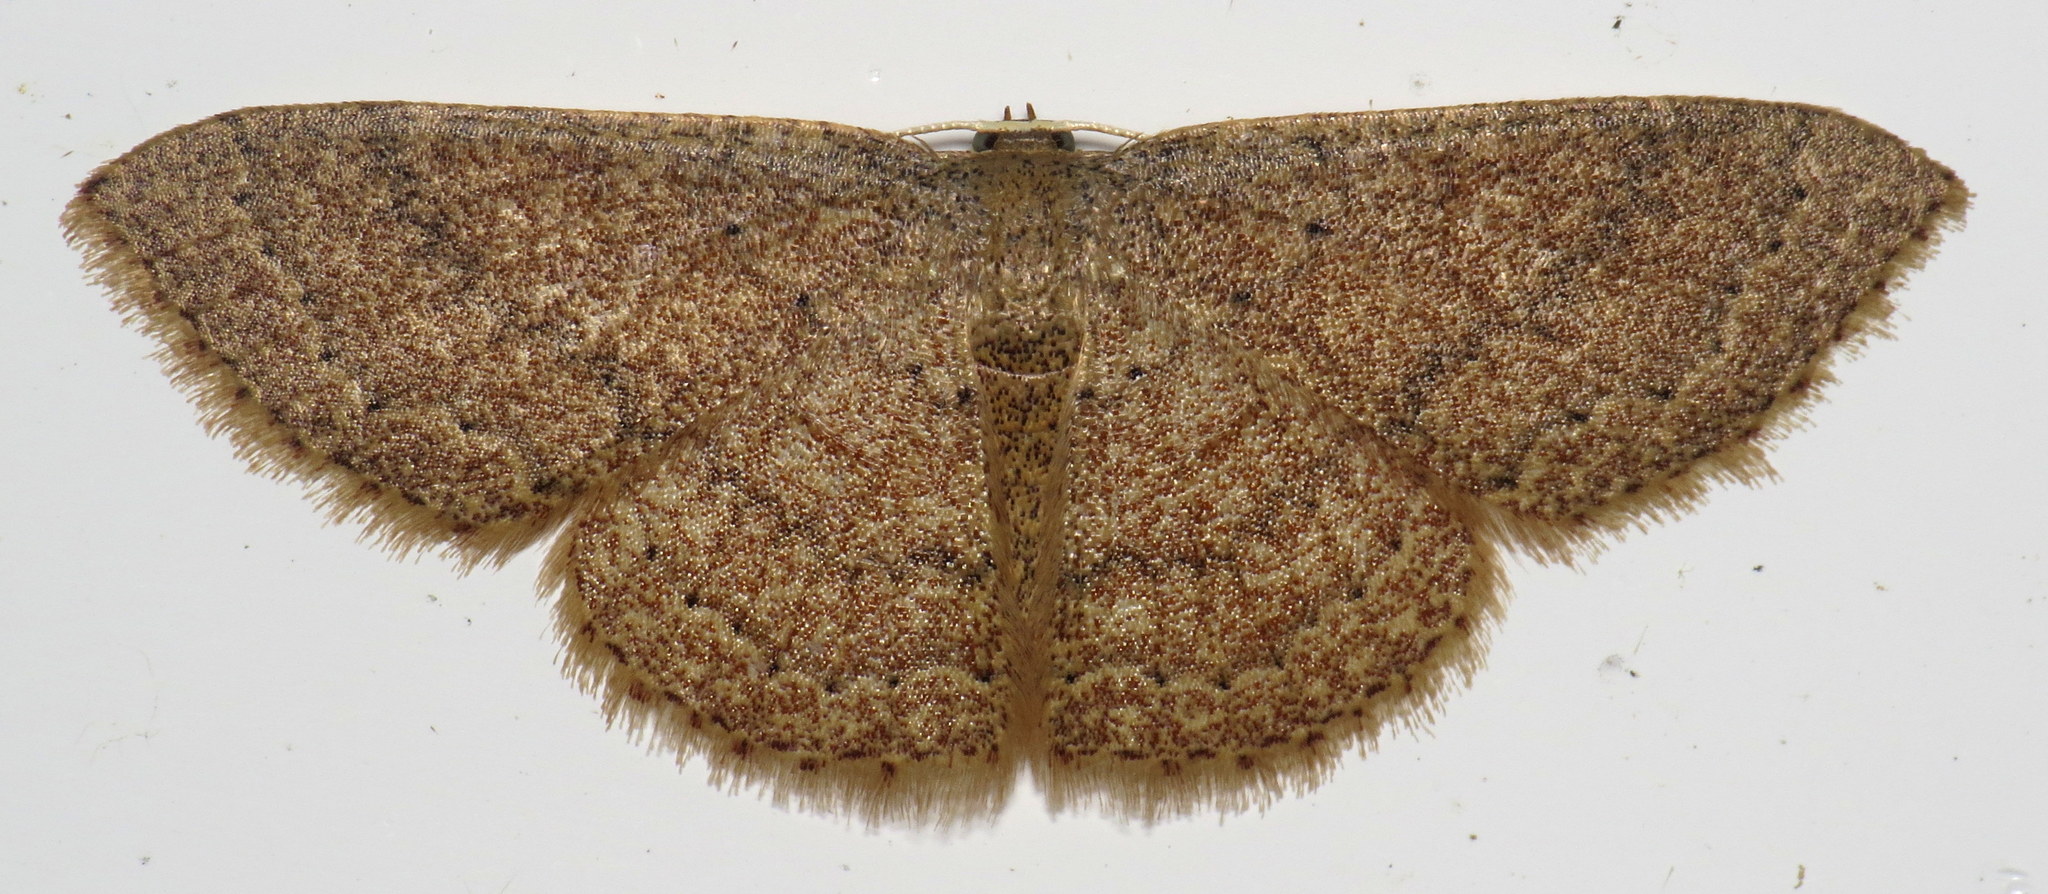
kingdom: Animalia
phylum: Arthropoda
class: Insecta
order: Lepidoptera
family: Geometridae
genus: Pleuroprucha
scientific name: Pleuroprucha insulsaria
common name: Common tan wave
